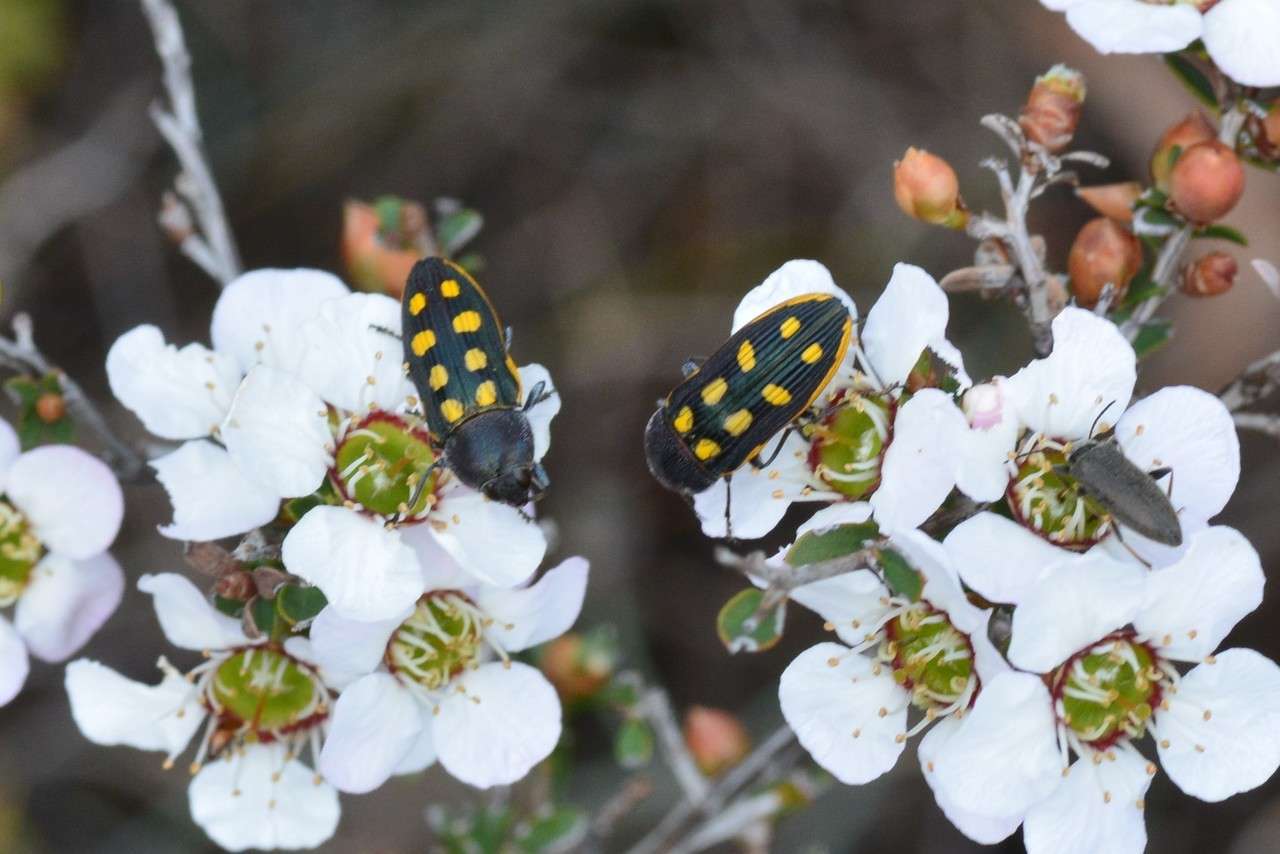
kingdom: Animalia
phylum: Arthropoda
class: Insecta
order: Coleoptera
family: Buprestidae
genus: Castiarina
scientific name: Castiarina xanthopilosa
